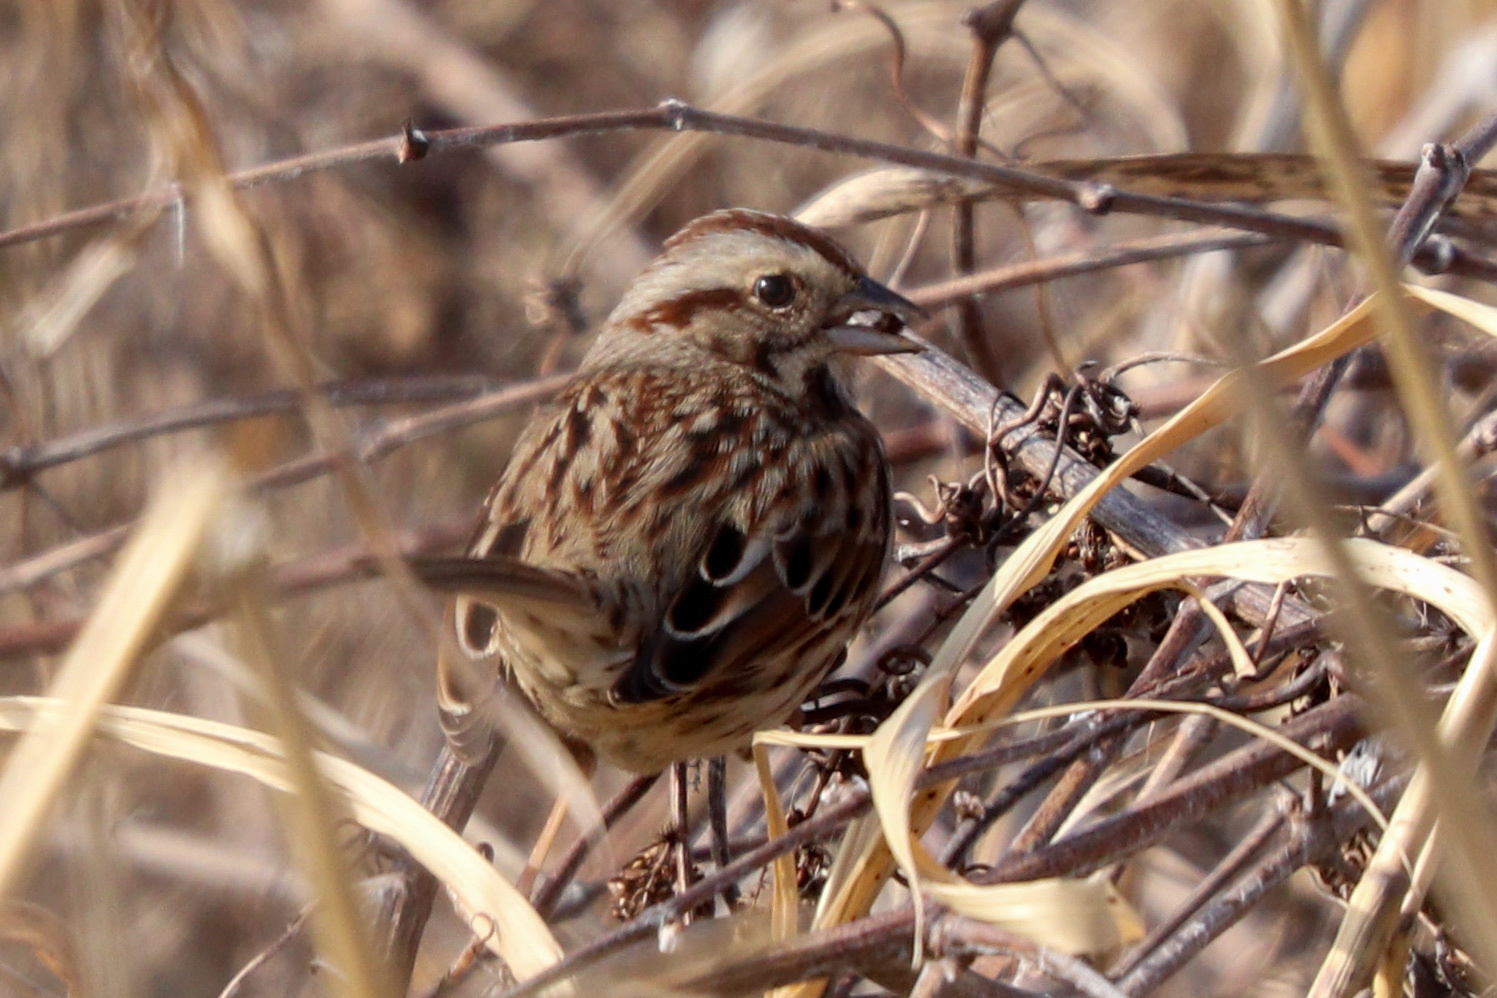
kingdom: Animalia
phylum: Chordata
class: Aves
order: Passeriformes
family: Passerellidae
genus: Melospiza
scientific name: Melospiza melodia
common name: Song sparrow
